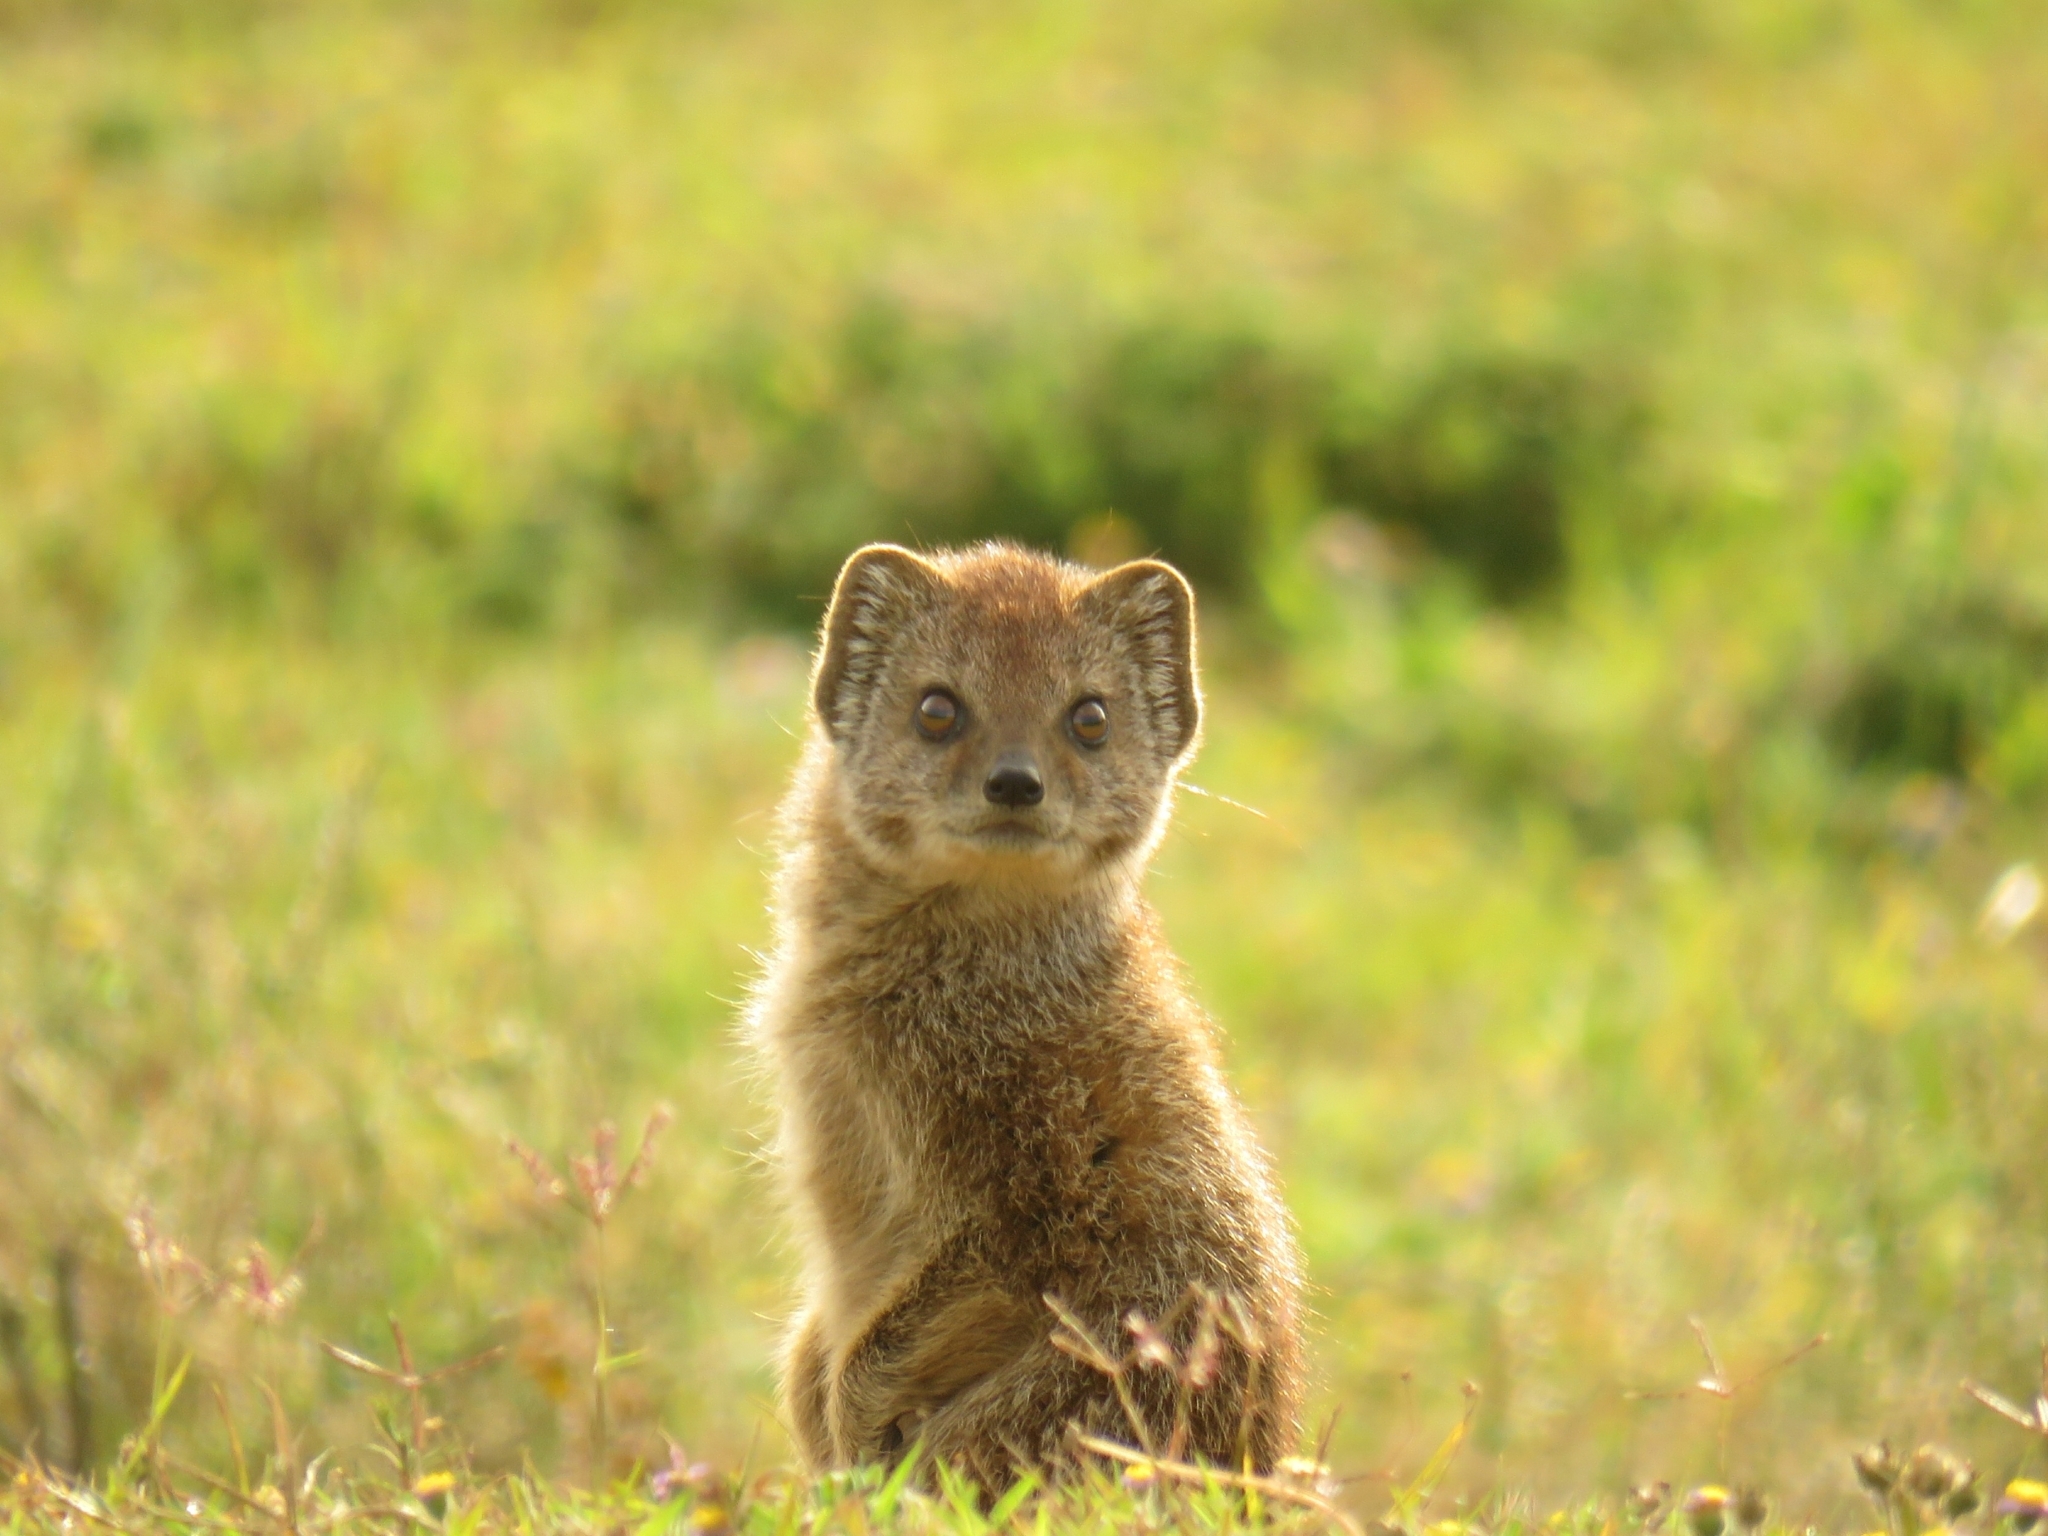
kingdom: Animalia
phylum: Chordata
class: Mammalia
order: Carnivora
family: Herpestidae
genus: Cynictis
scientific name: Cynictis penicillata
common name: Yellow mongoose
